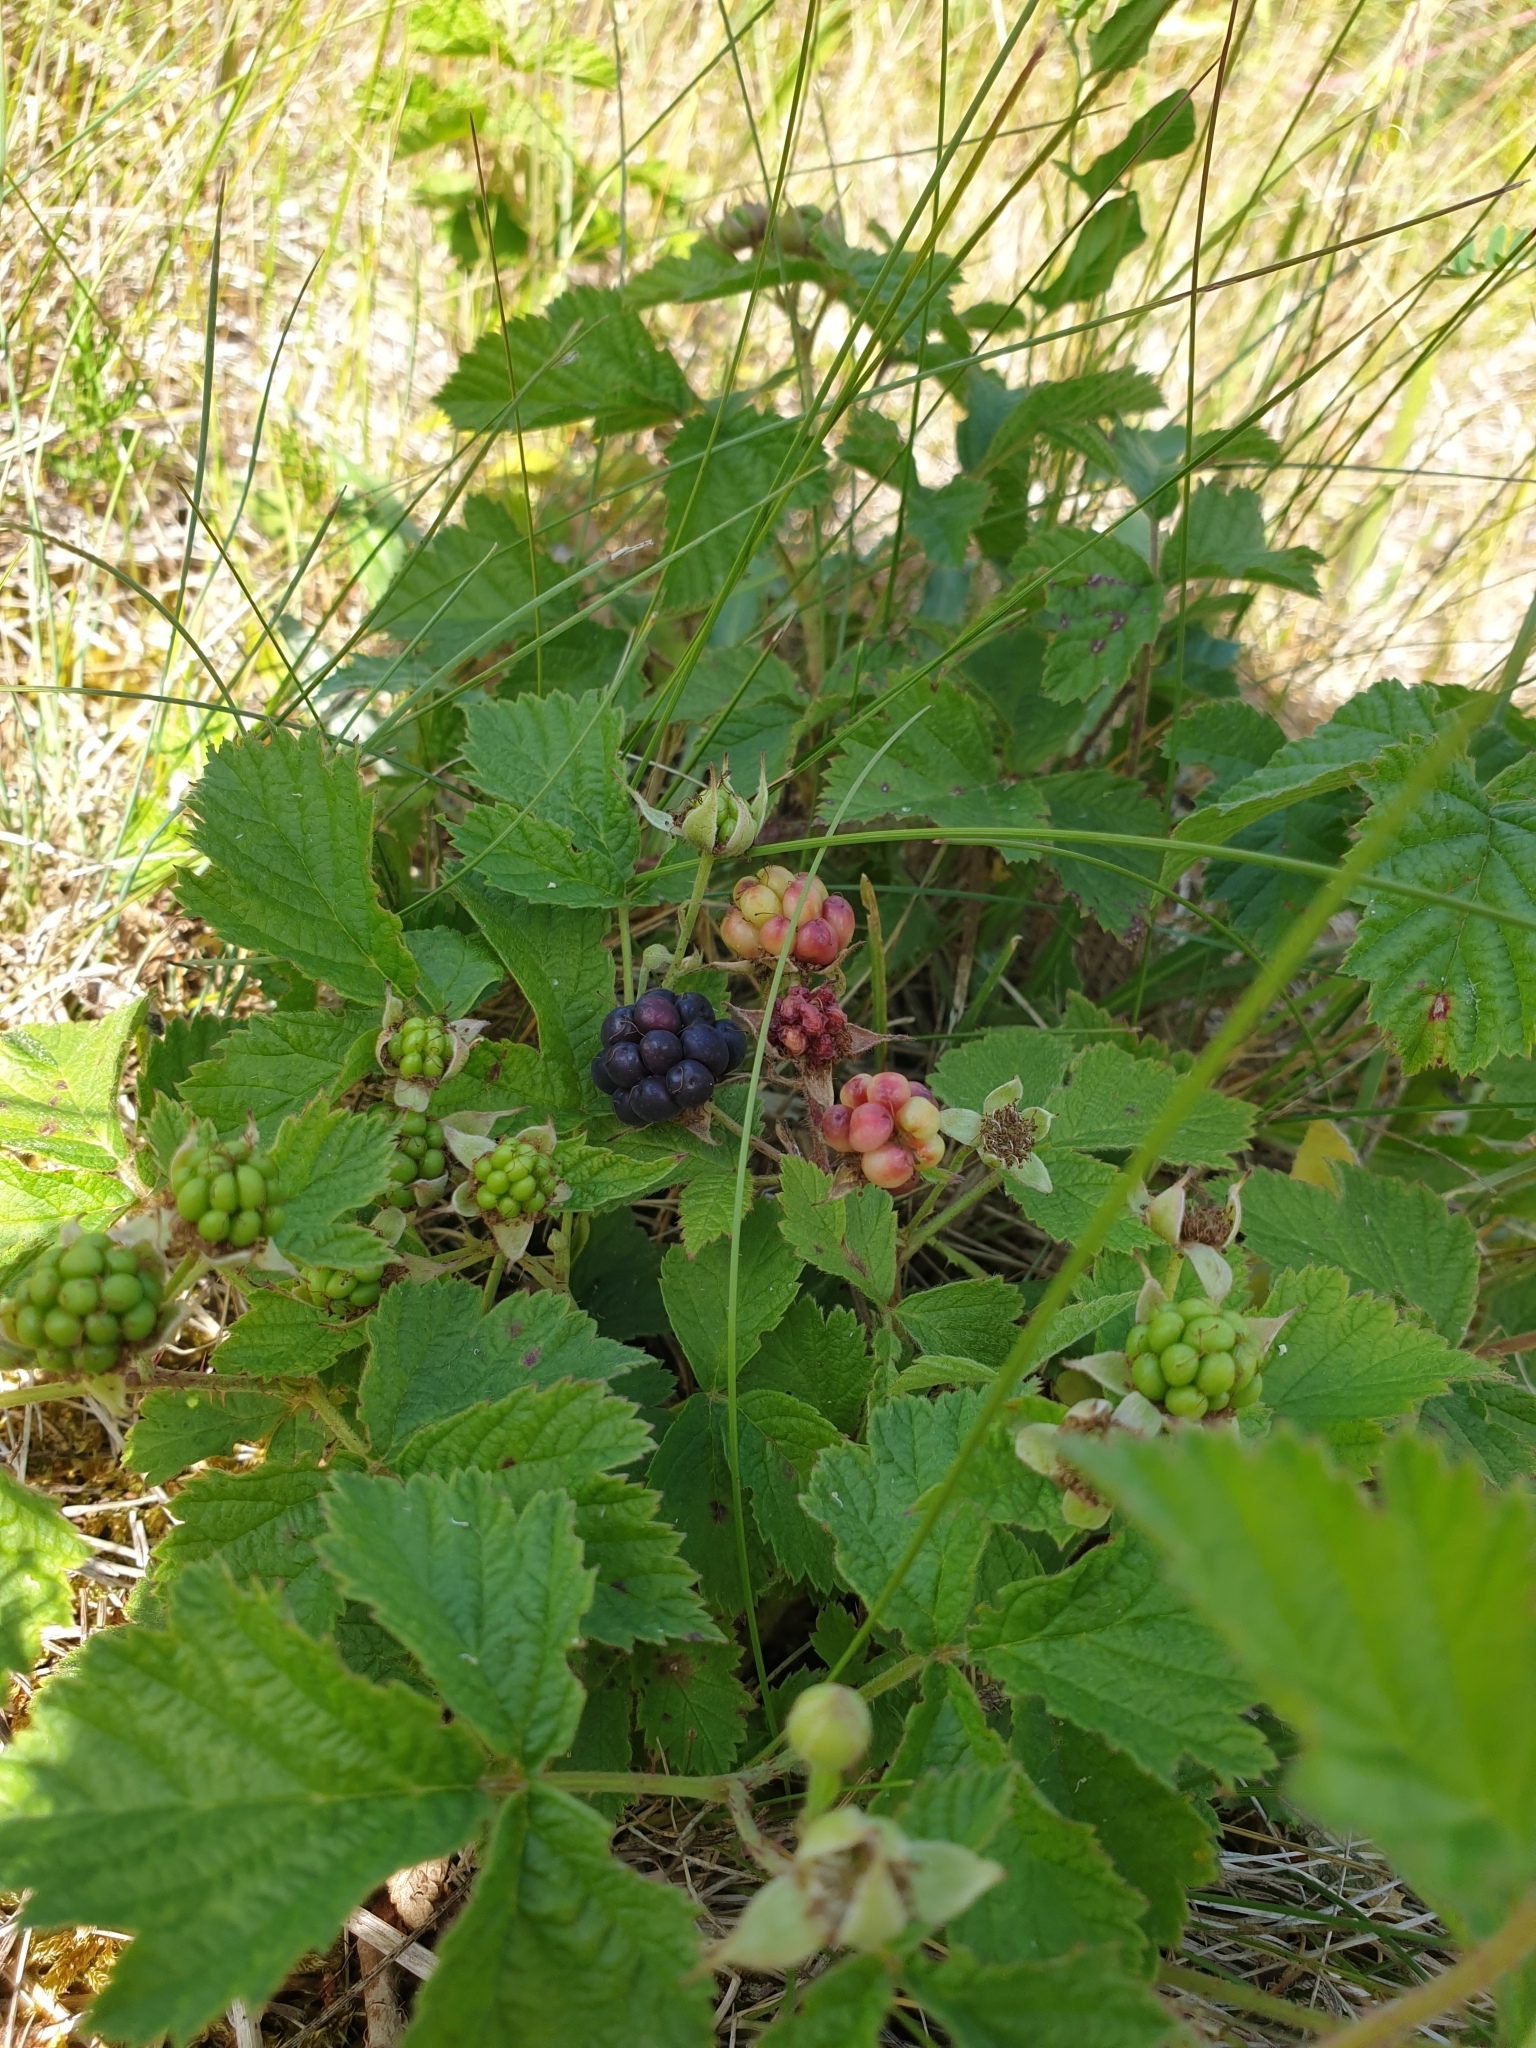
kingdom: Plantae
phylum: Tracheophyta
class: Magnoliopsida
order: Rosales
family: Rosaceae
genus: Rubus
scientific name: Rubus caesius
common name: Dewberry
